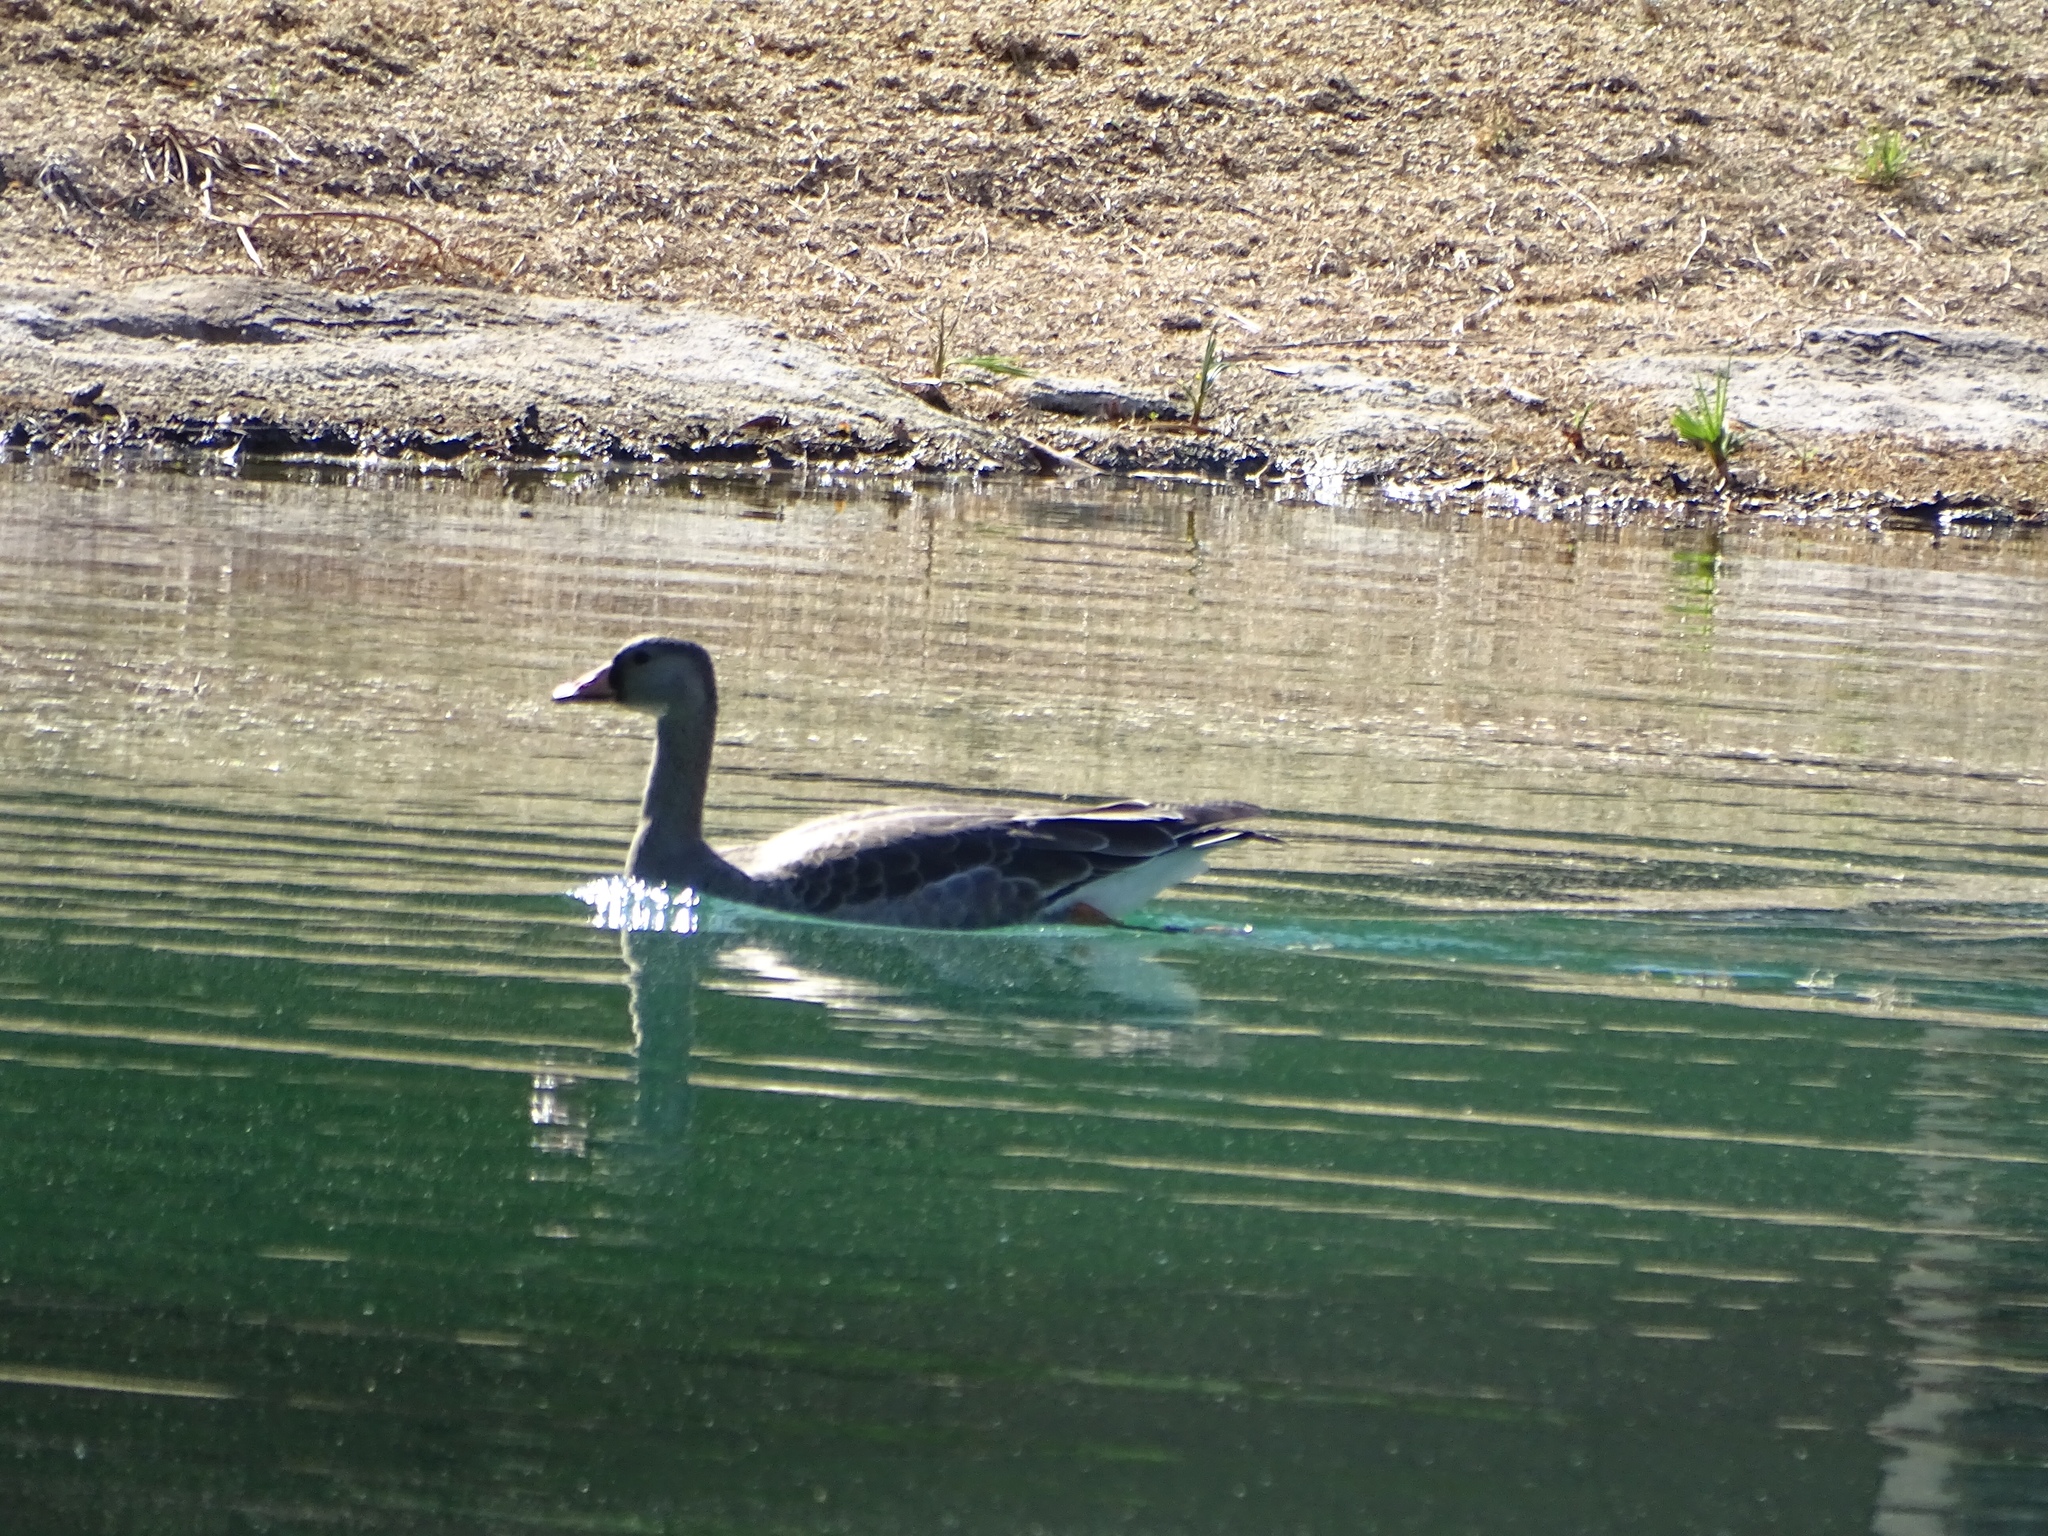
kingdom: Animalia
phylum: Chordata
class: Aves
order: Anseriformes
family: Anatidae
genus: Anser
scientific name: Anser albifrons
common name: Greater white-fronted goose
